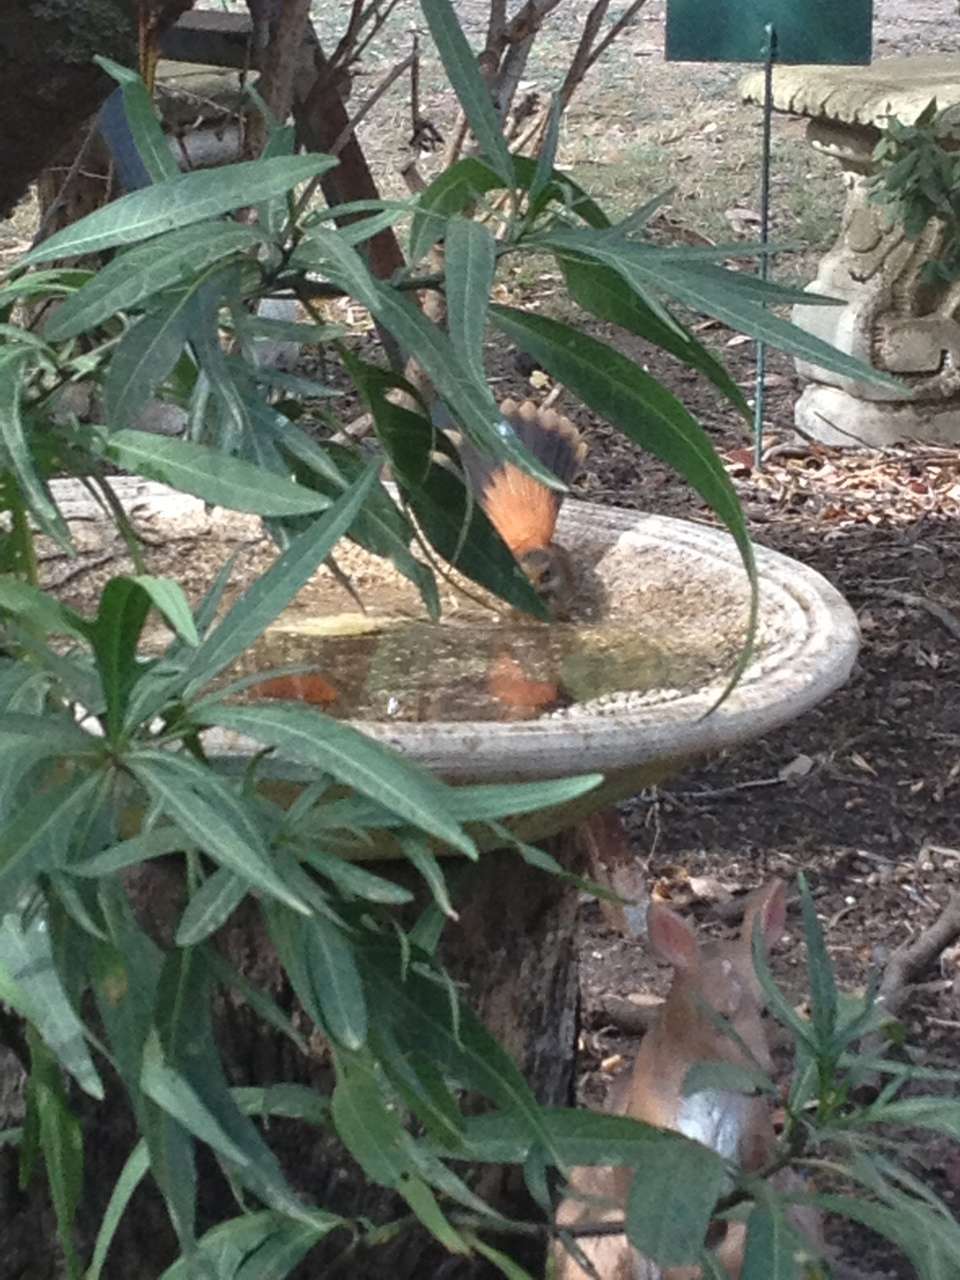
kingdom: Animalia
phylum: Chordata
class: Aves
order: Passeriformes
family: Rhipiduridae
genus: Rhipidura
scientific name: Rhipidura rufifrons
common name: Rufous fantail
